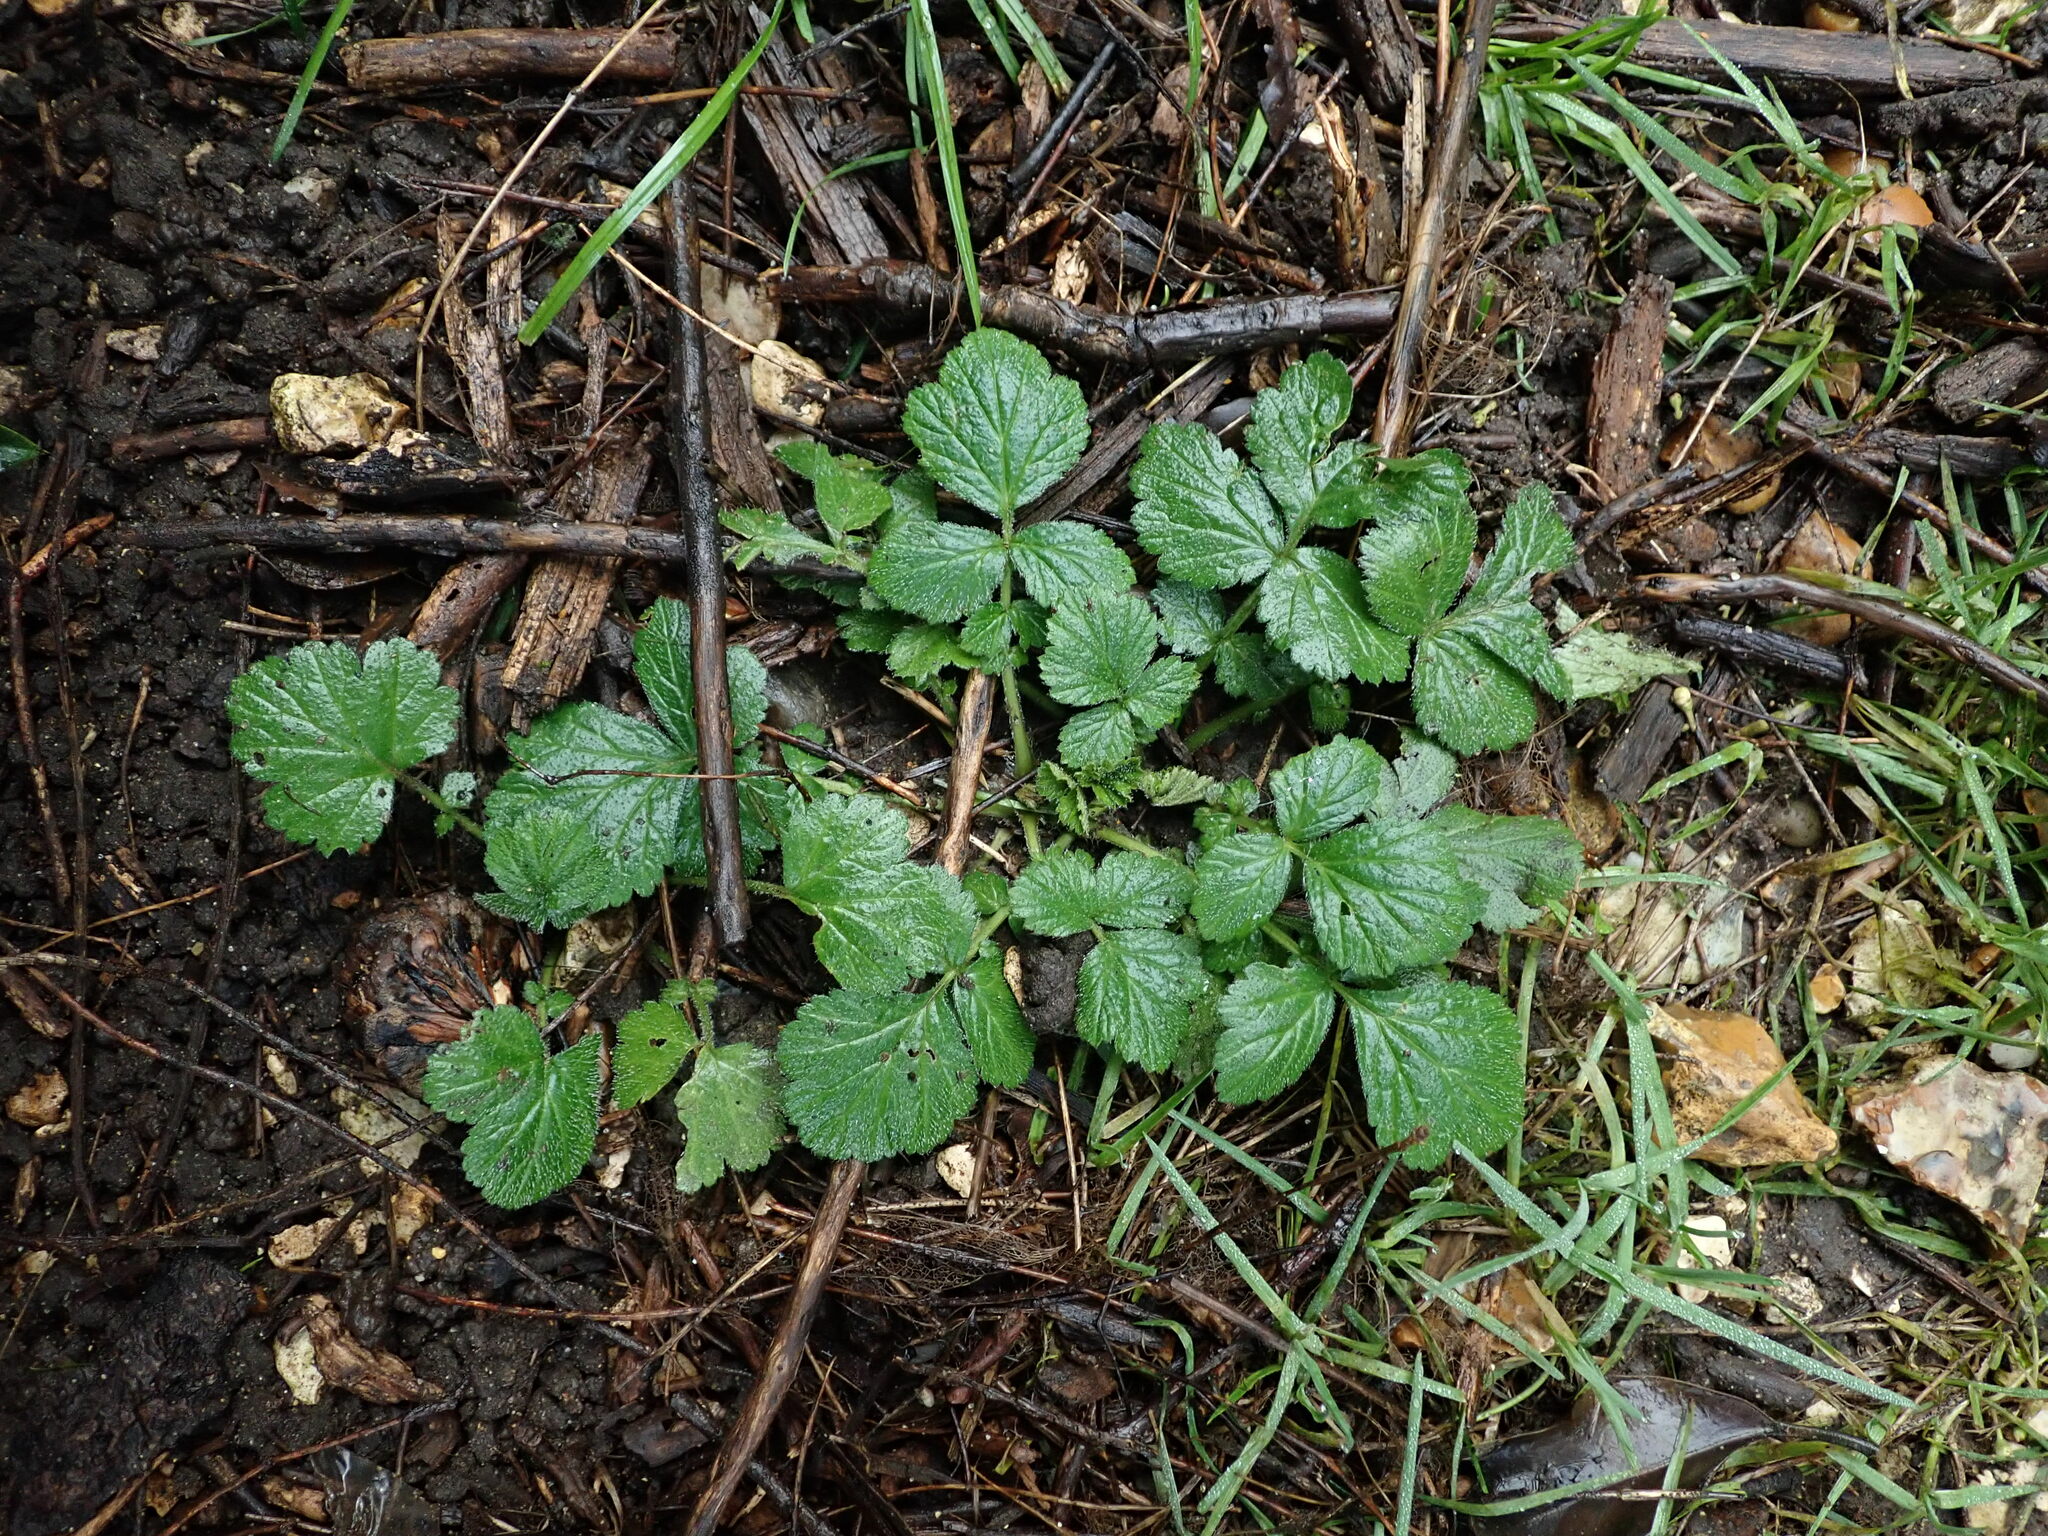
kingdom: Plantae
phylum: Tracheophyta
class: Magnoliopsida
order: Rosales
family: Rosaceae
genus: Geum
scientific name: Geum urbanum
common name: Wood avens
